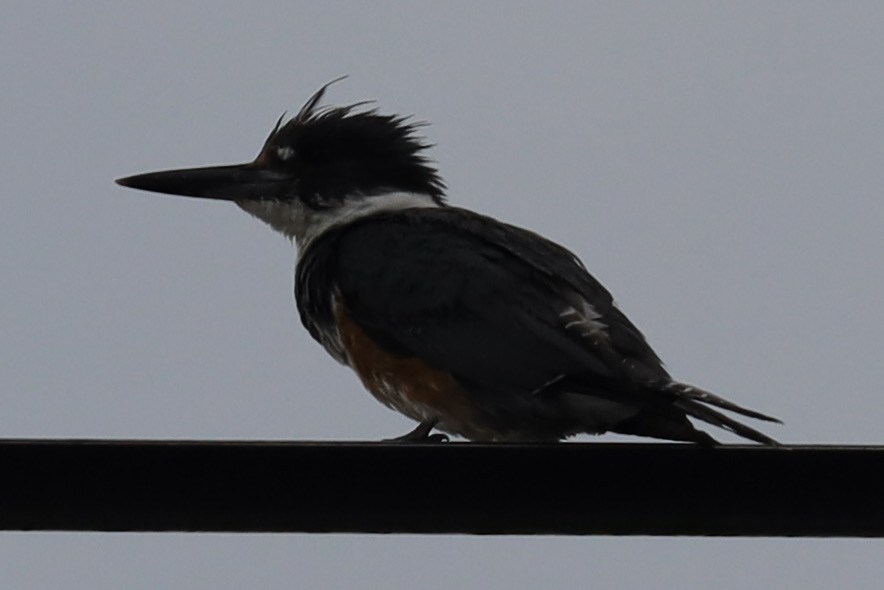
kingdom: Animalia
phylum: Chordata
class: Aves
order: Coraciiformes
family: Alcedinidae
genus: Megaceryle
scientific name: Megaceryle alcyon
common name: Belted kingfisher
